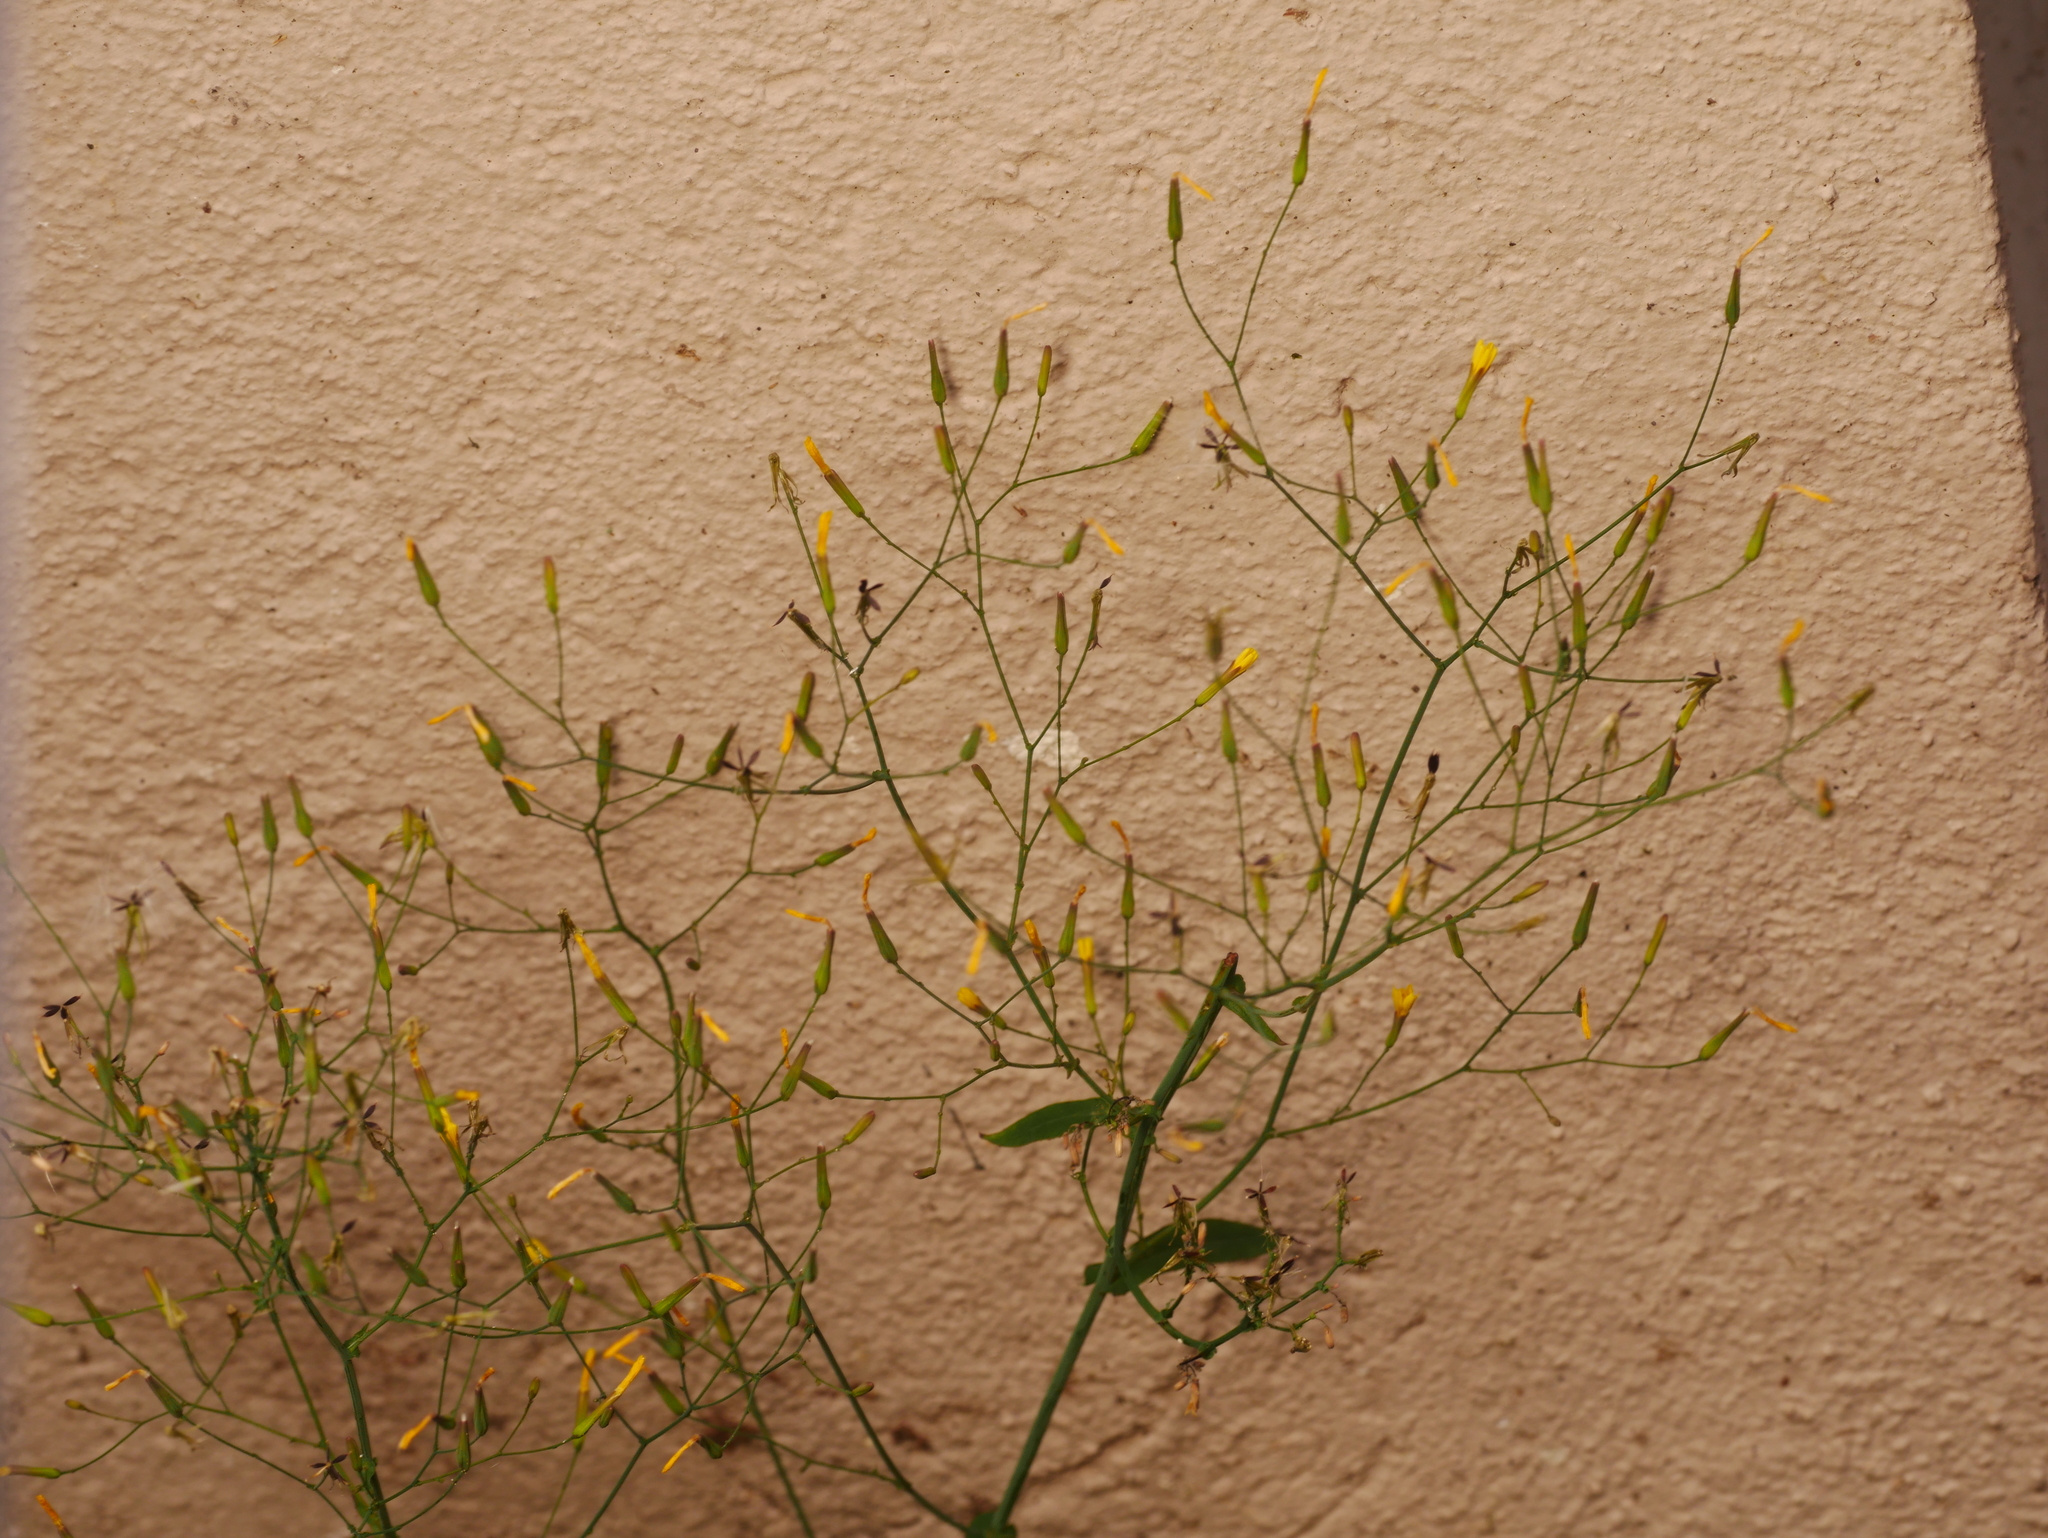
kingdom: Plantae
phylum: Tracheophyta
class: Magnoliopsida
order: Asterales
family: Asteraceae
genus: Mycelis
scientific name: Mycelis muralis
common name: Wall lettuce
